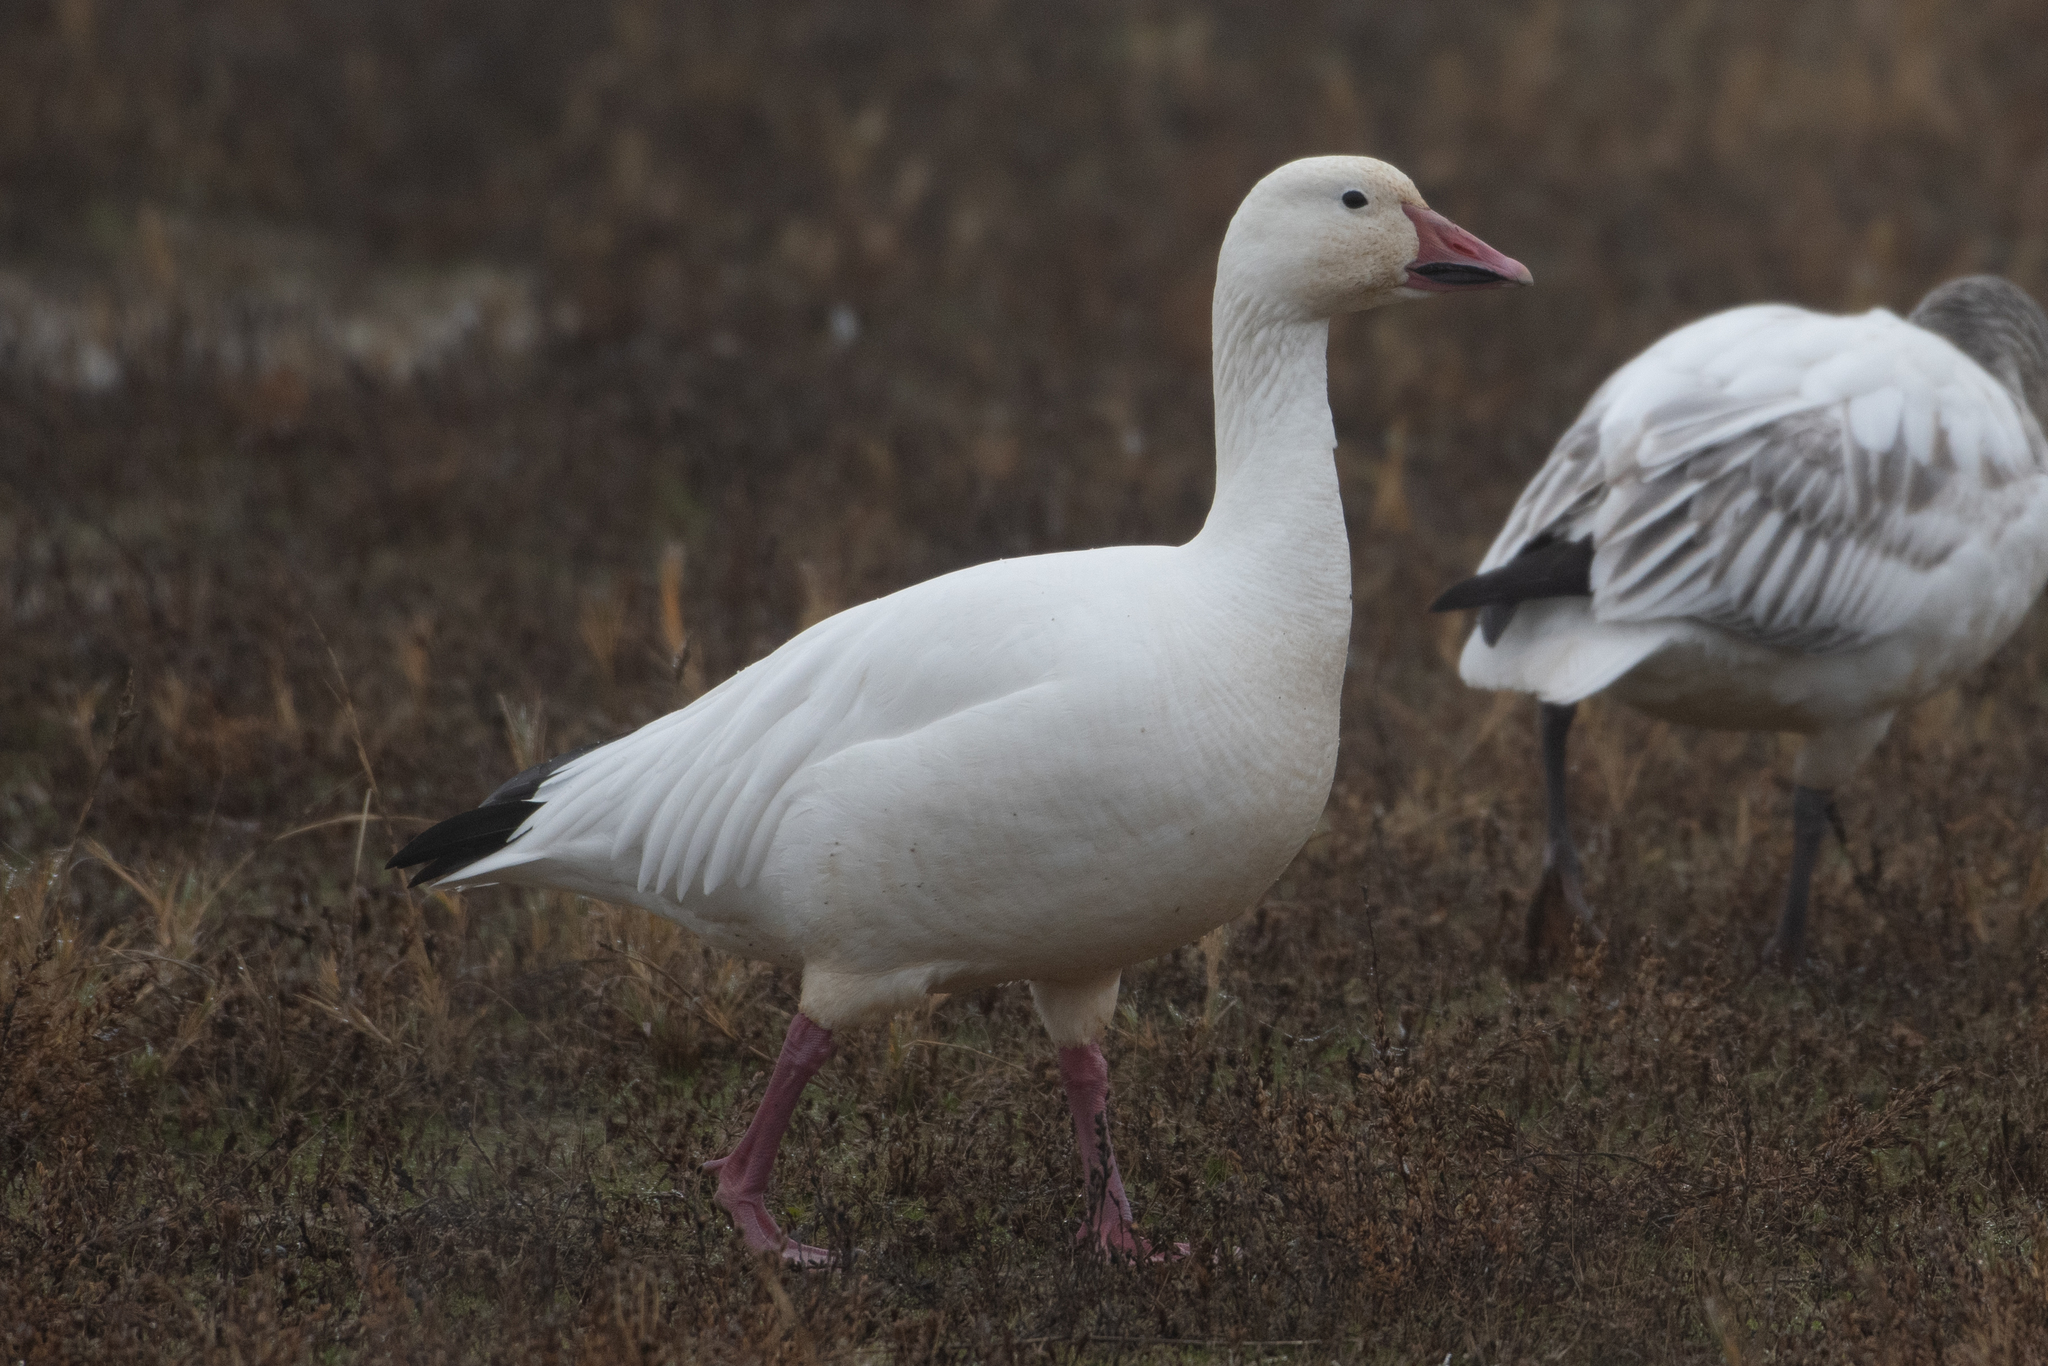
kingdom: Animalia
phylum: Chordata
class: Aves
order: Anseriformes
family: Anatidae
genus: Anser
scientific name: Anser caerulescens
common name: Snow goose
